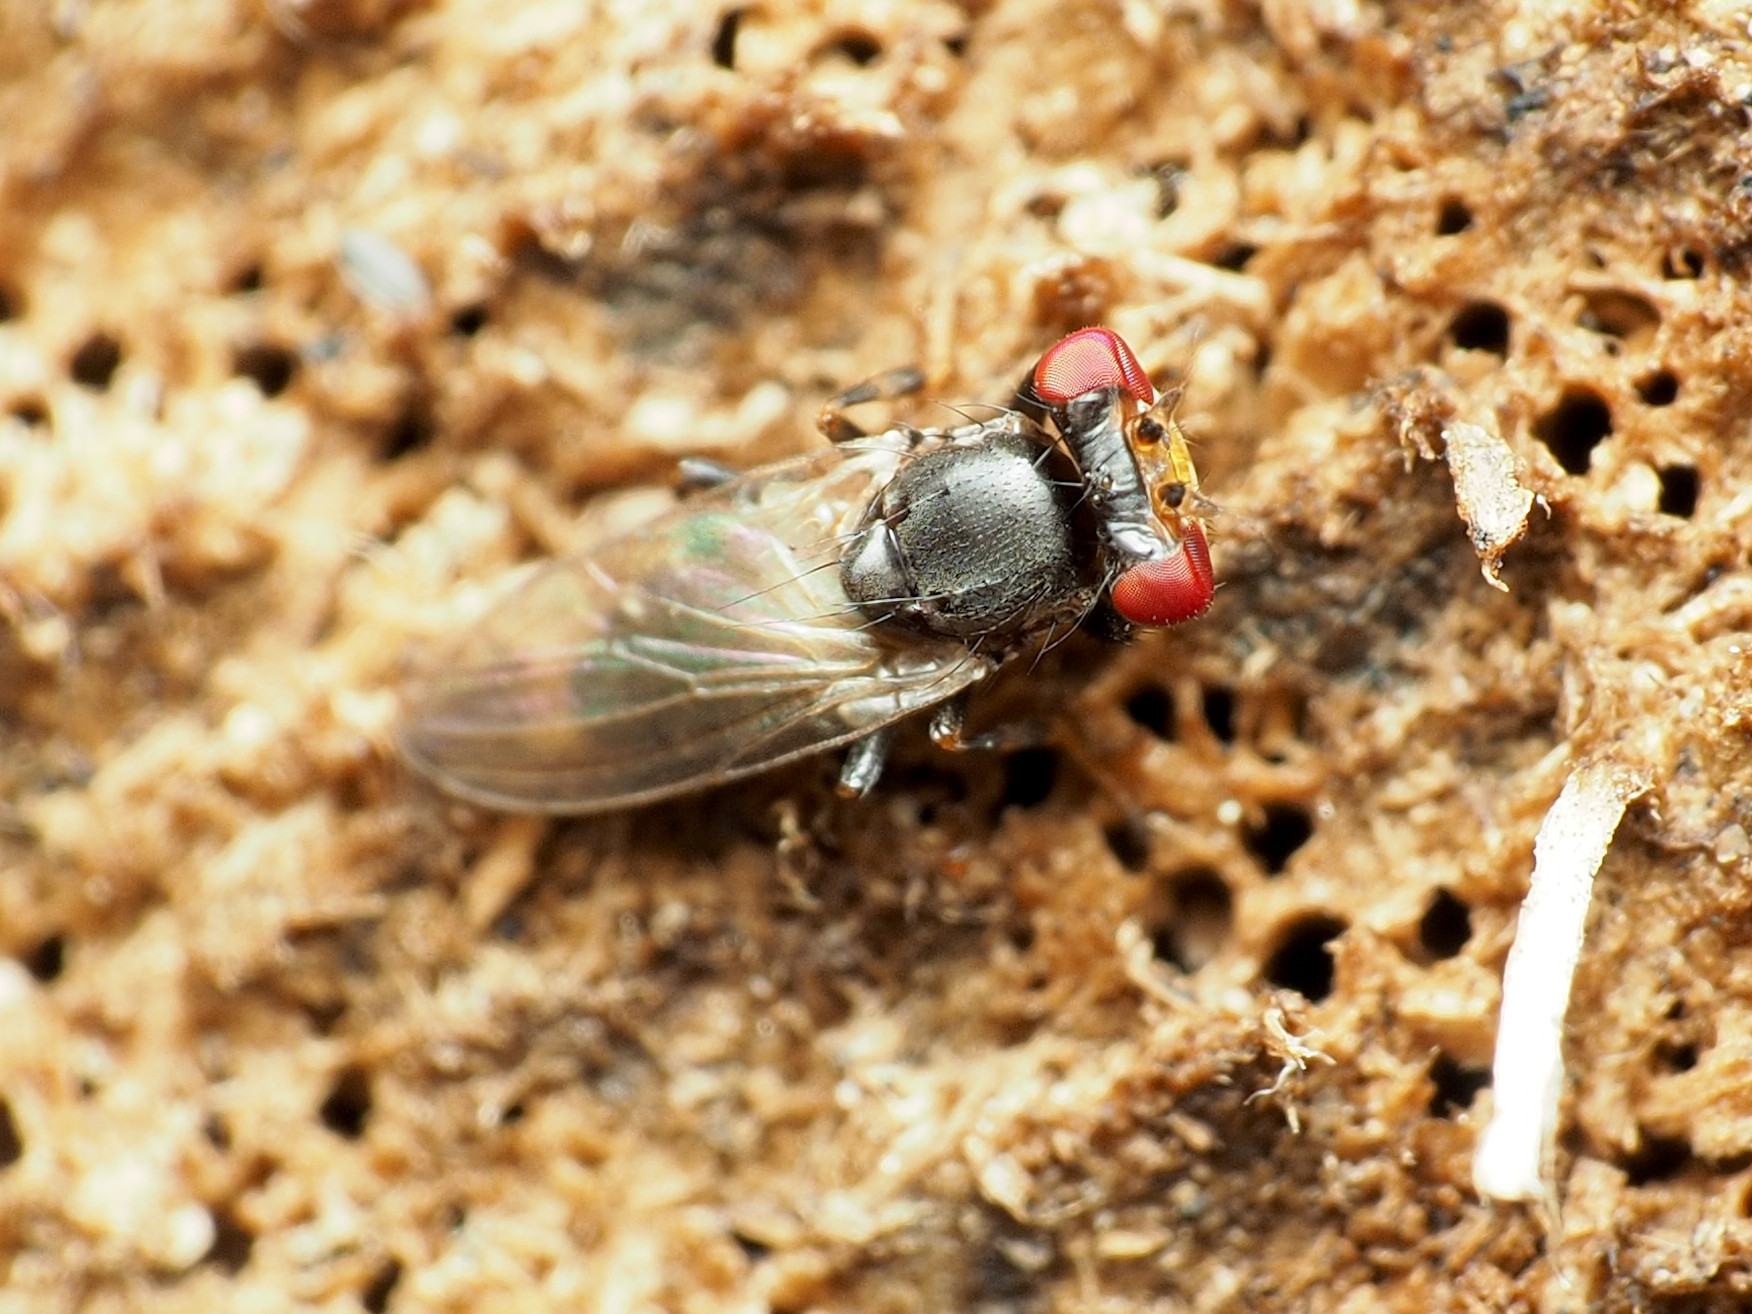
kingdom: Animalia
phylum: Arthropoda
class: Insecta
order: Diptera
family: Periscelididae
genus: Periscelis
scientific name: Periscelis wheeleri
